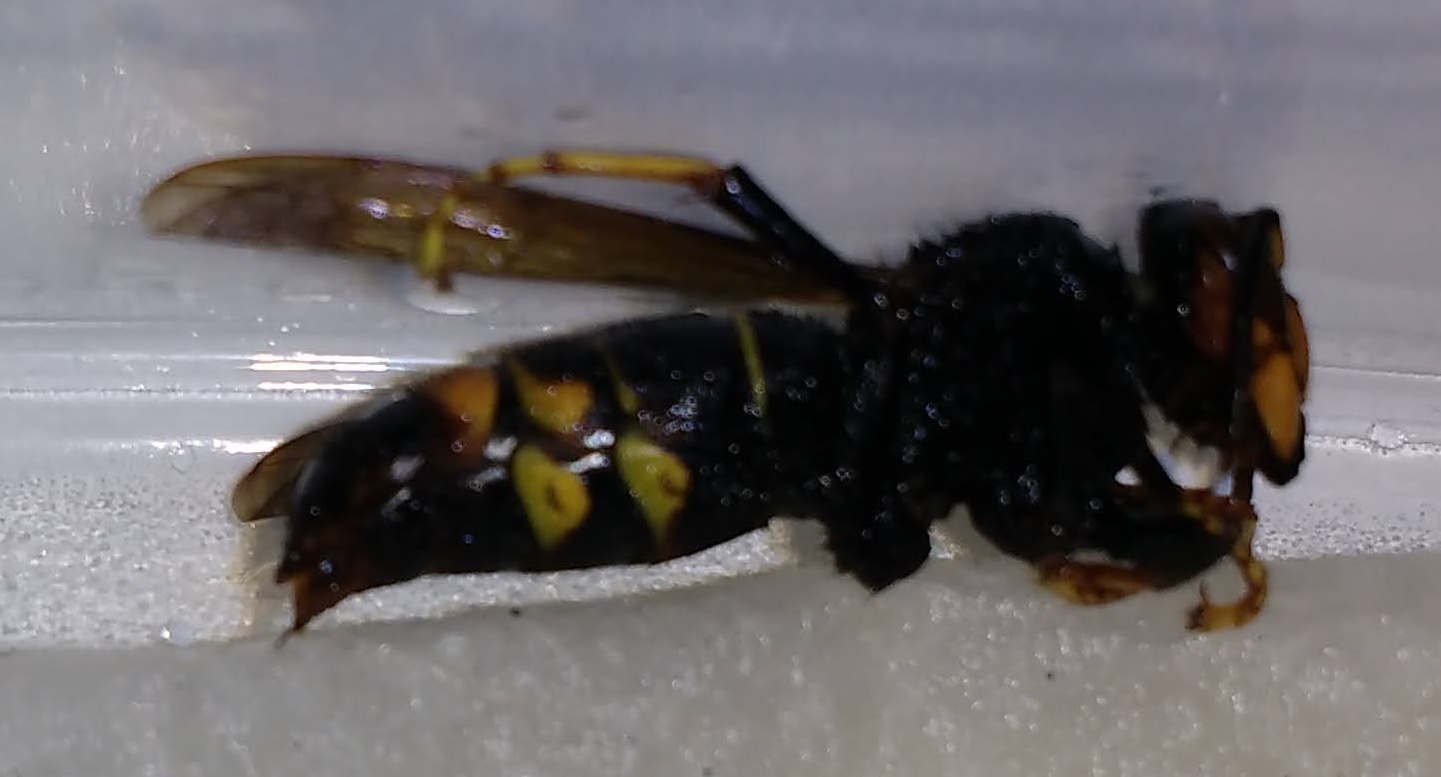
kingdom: Animalia
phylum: Arthropoda
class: Insecta
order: Hymenoptera
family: Vespidae
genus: Vespa
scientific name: Vespa velutina
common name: Asian hornet
